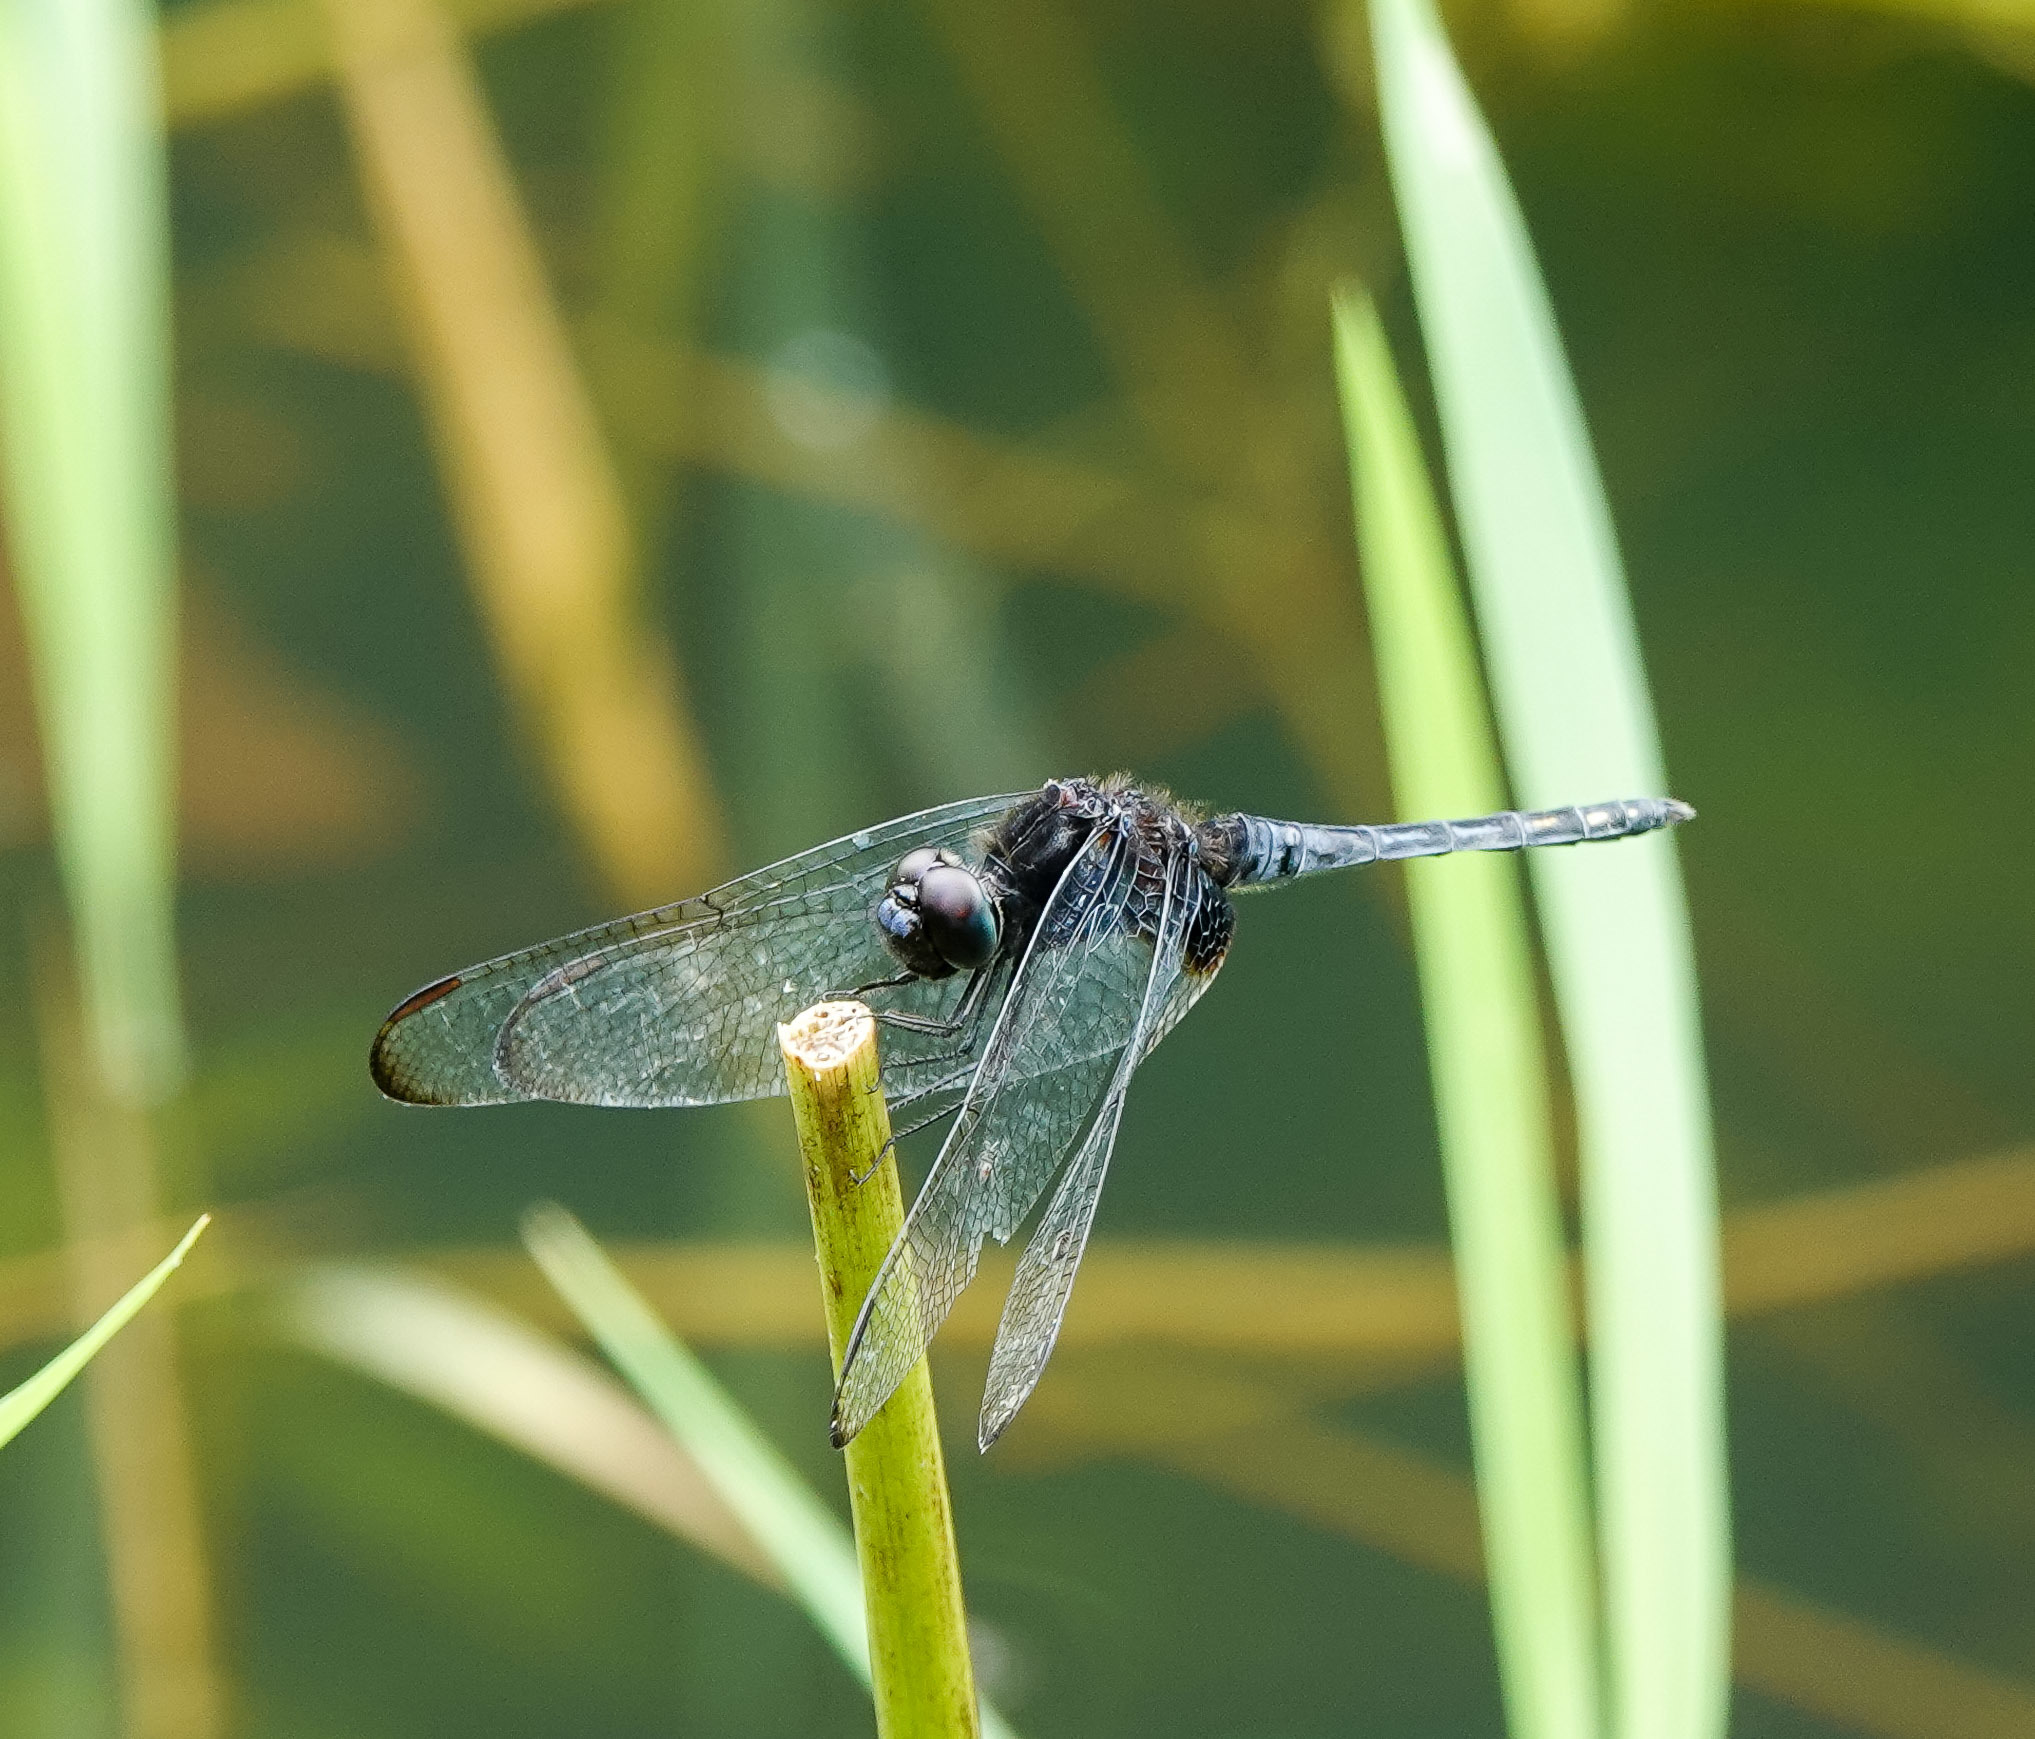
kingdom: Animalia
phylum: Arthropoda
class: Insecta
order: Odonata
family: Libellulidae
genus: Indothemis
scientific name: Indothemis limbata
